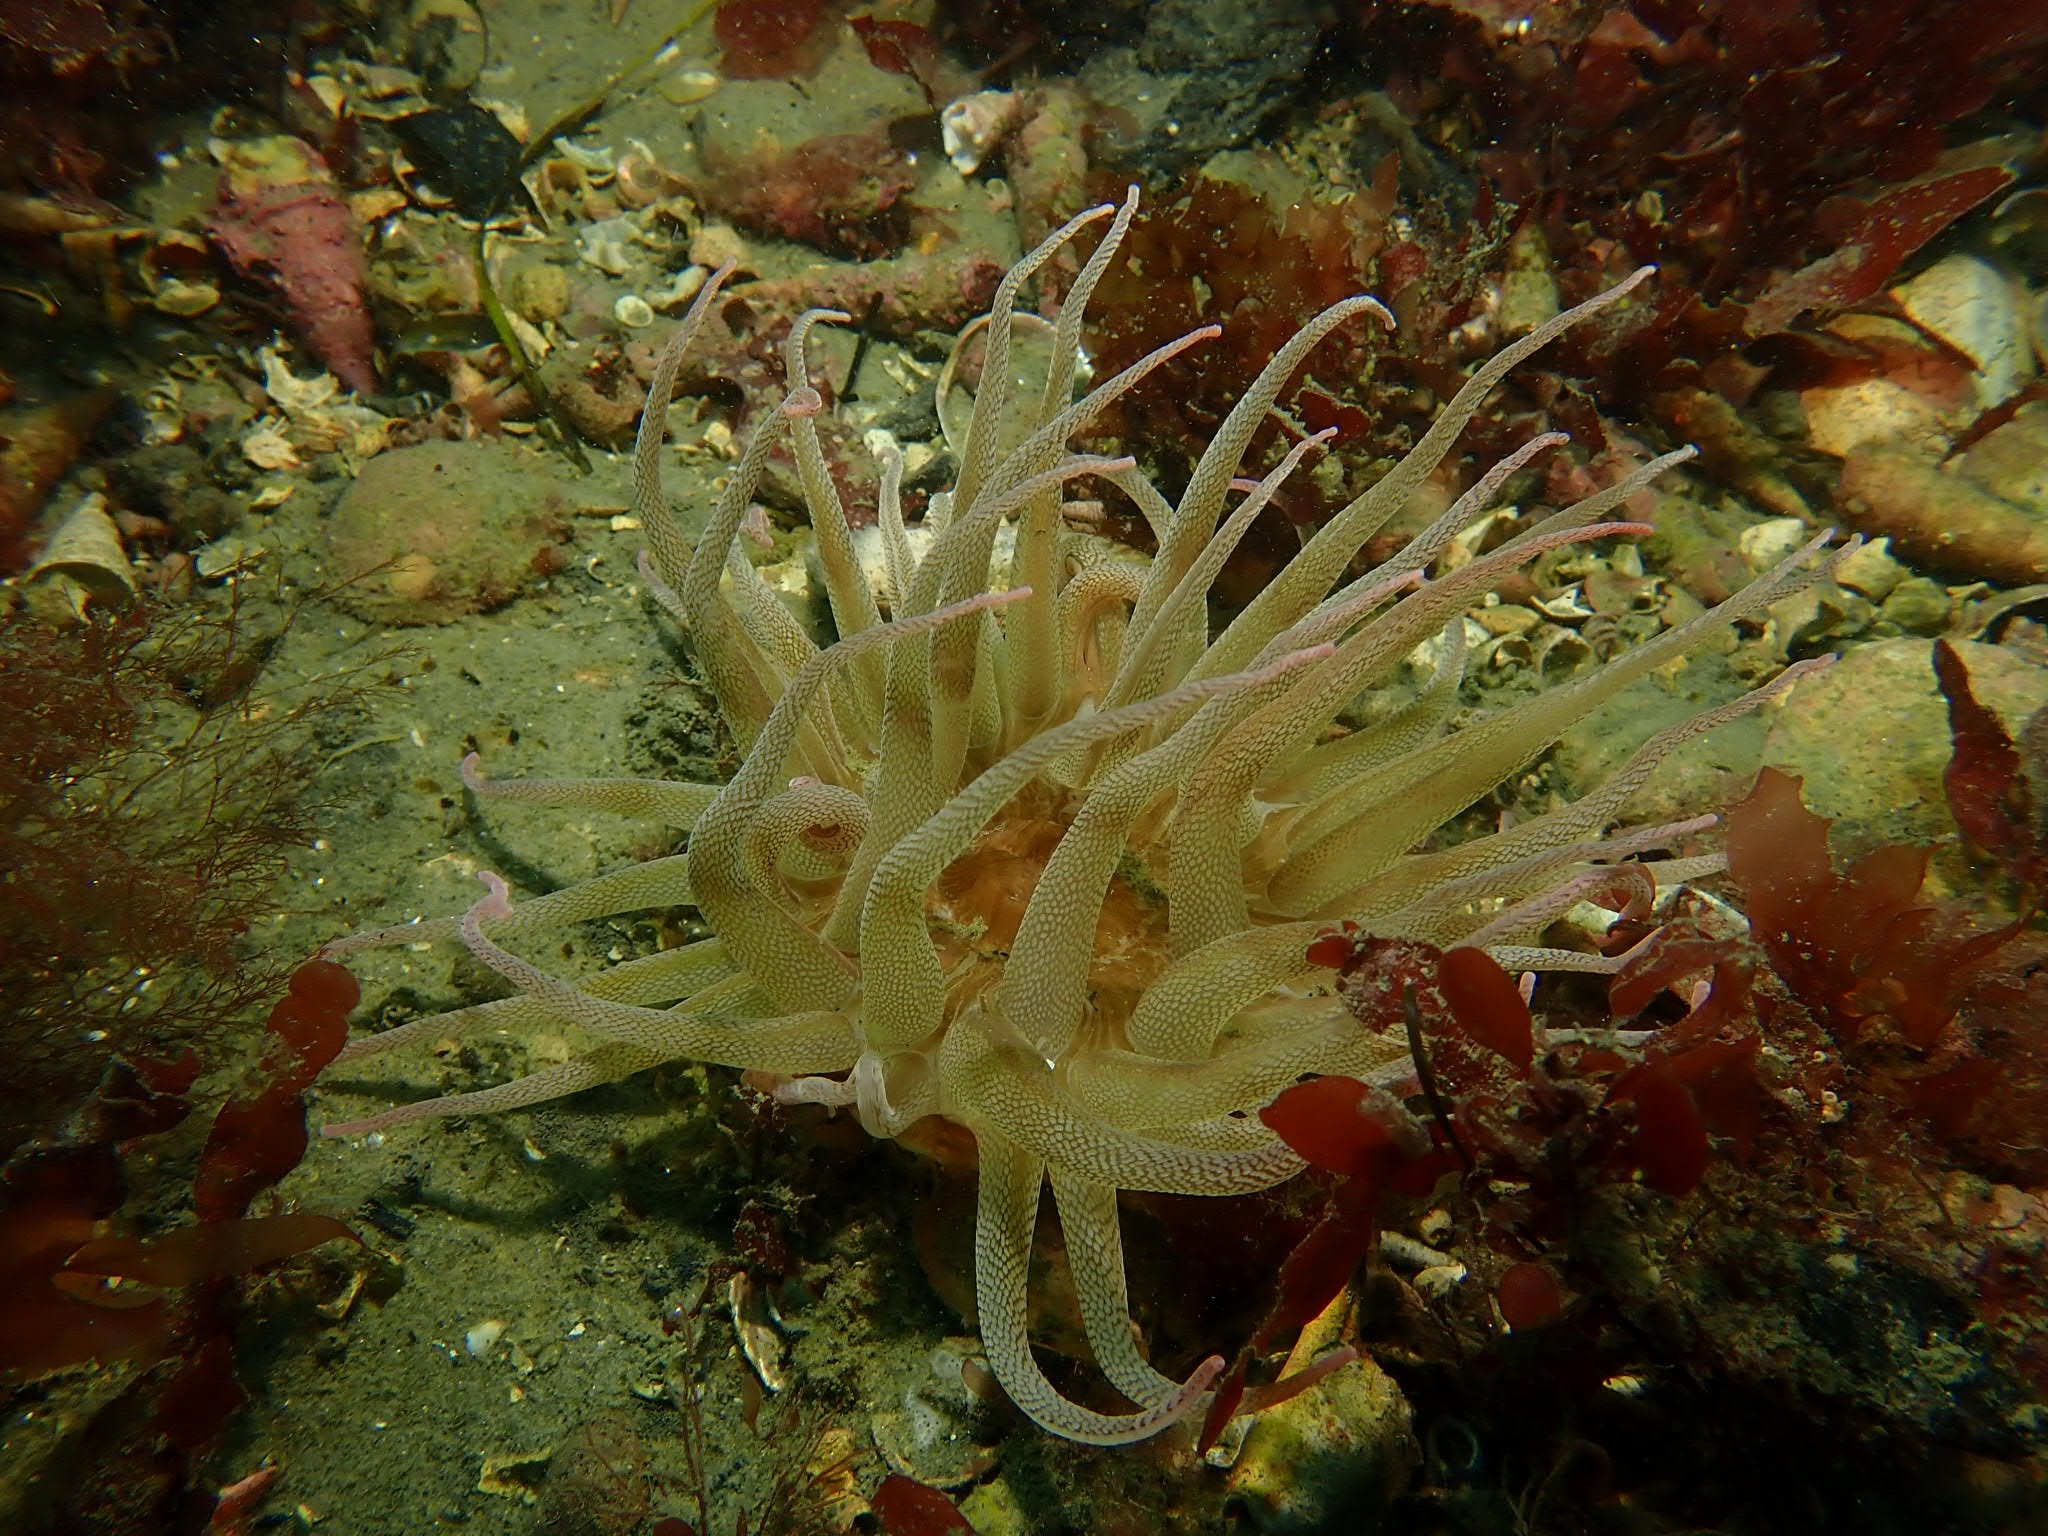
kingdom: Animalia
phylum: Cnidaria
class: Anthozoa
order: Actiniaria
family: Actiniidae
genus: Dofleinia
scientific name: Dofleinia armata
